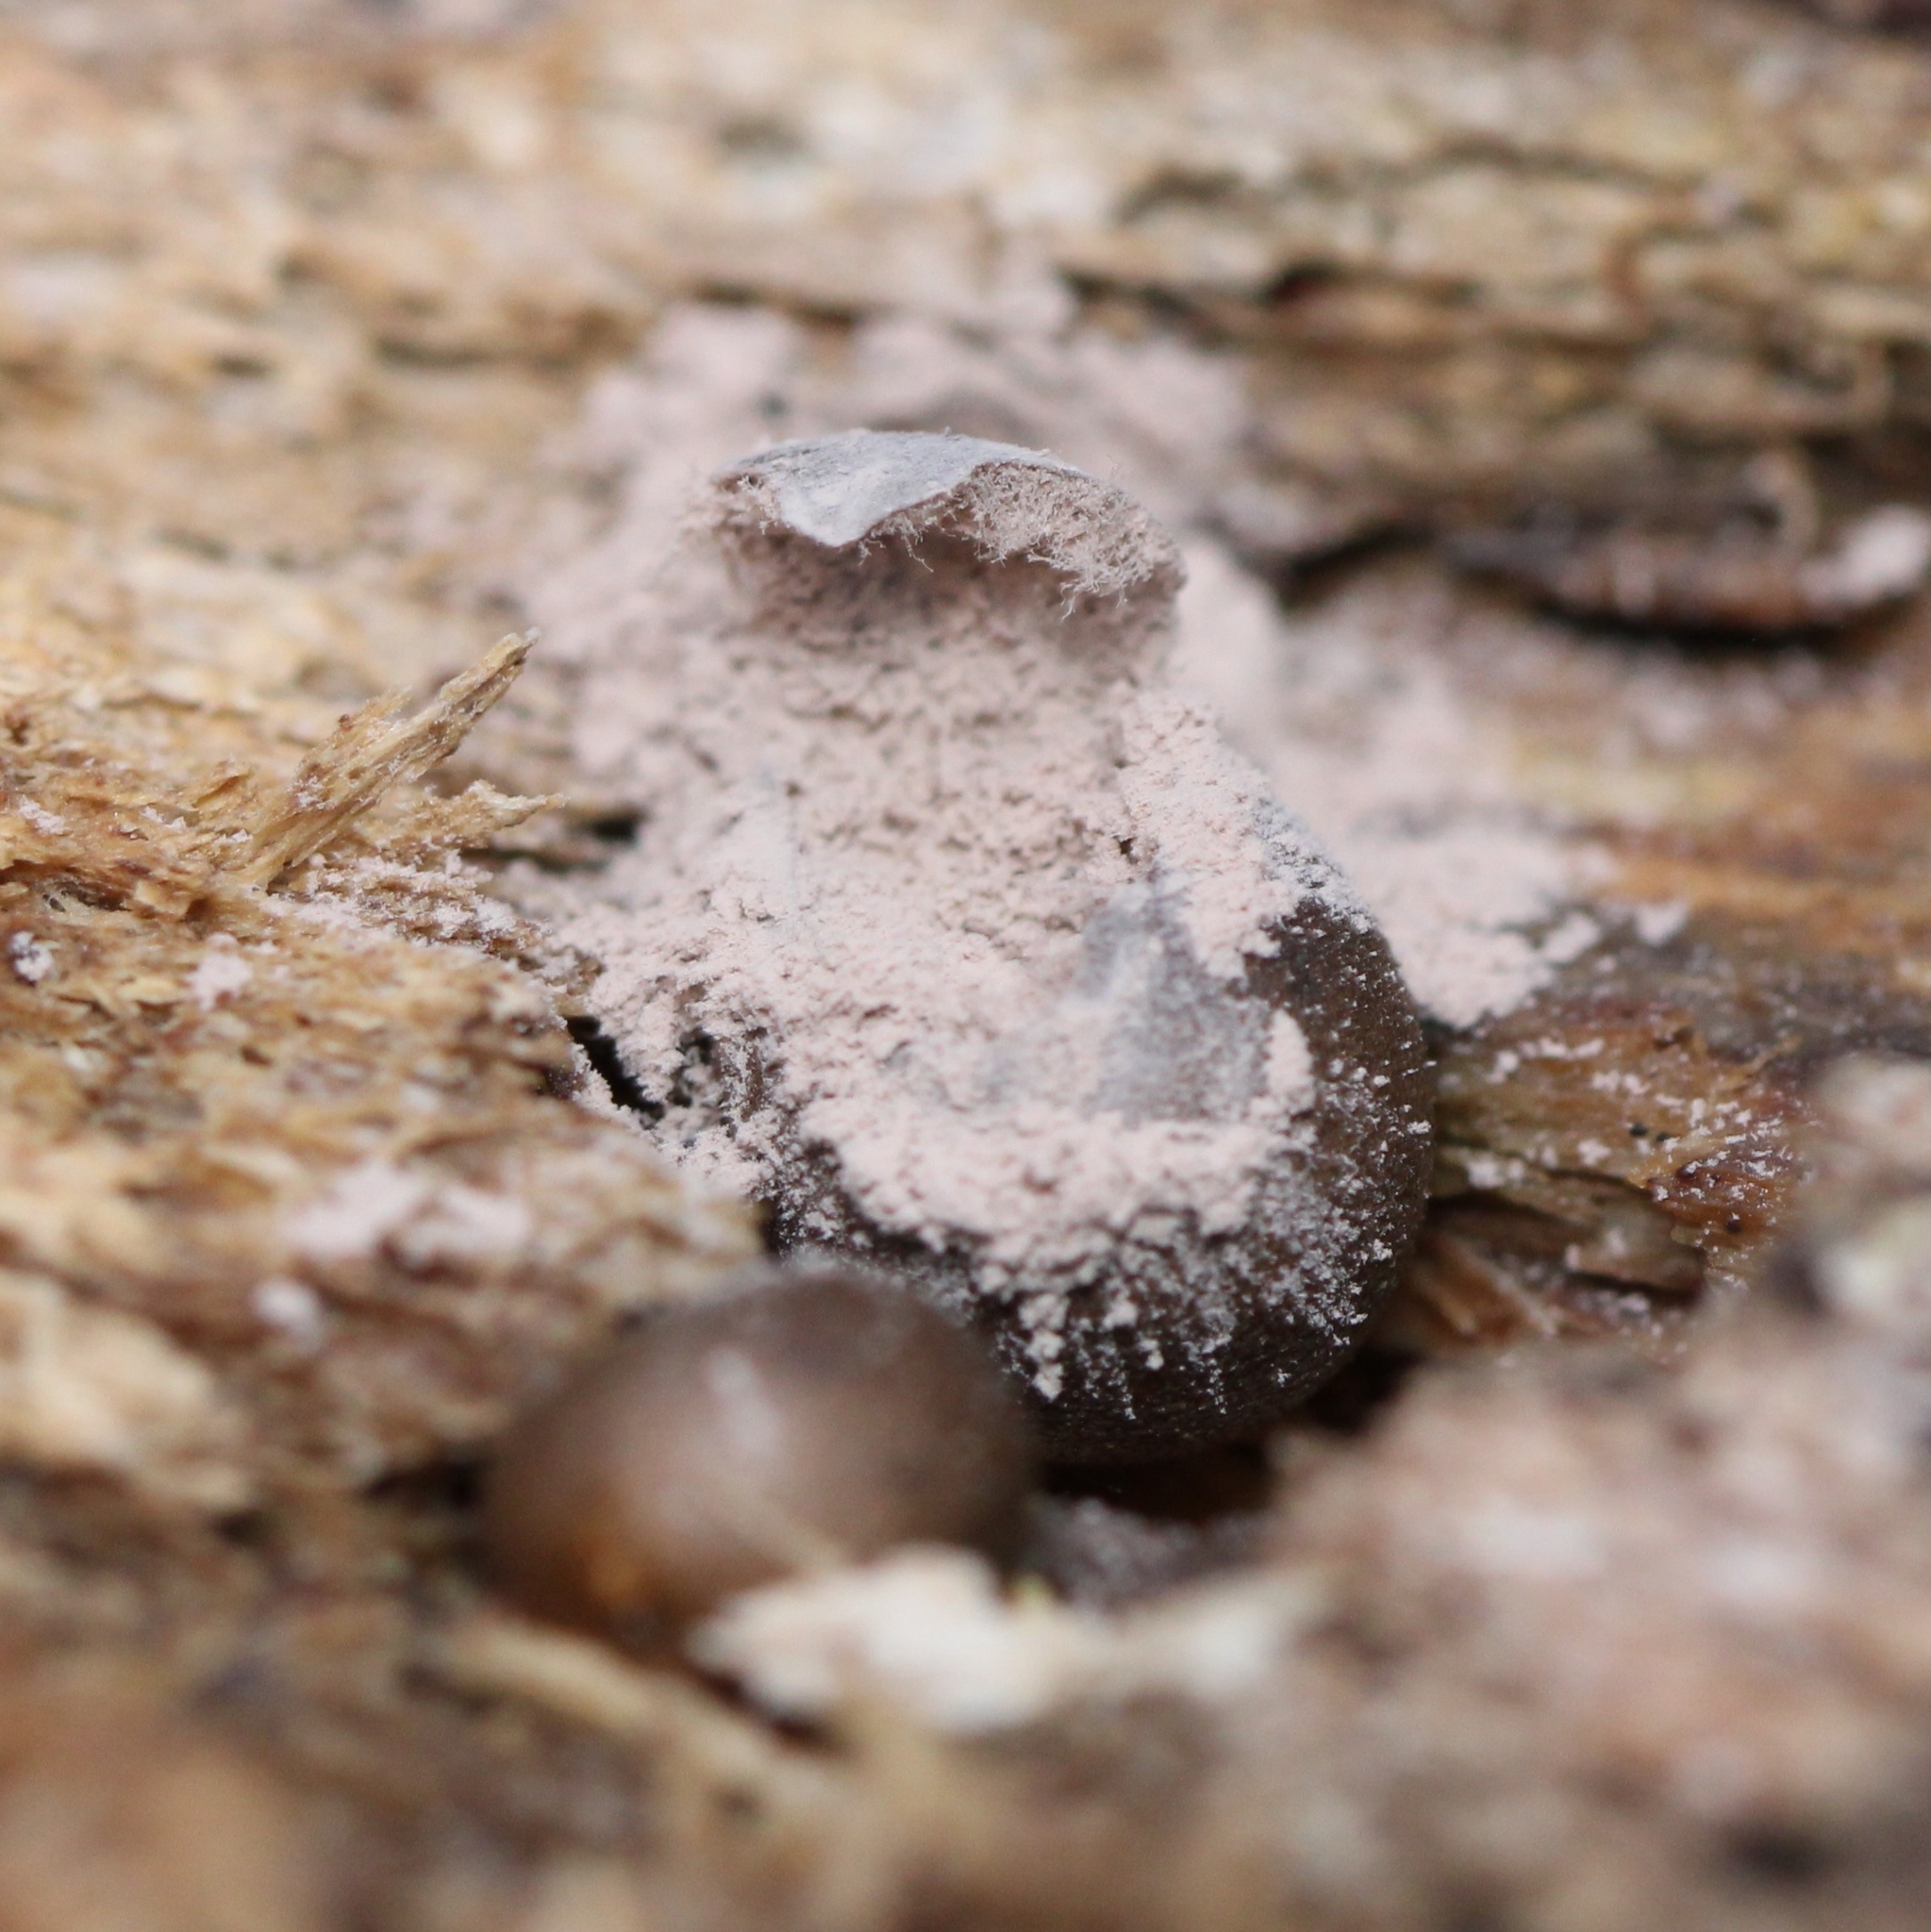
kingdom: Protozoa
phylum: Mycetozoa
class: Myxomycetes
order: Cribrariales
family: Tubiferaceae
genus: Lycogala
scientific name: Lycogala epidendrum
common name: Wolf's milk
